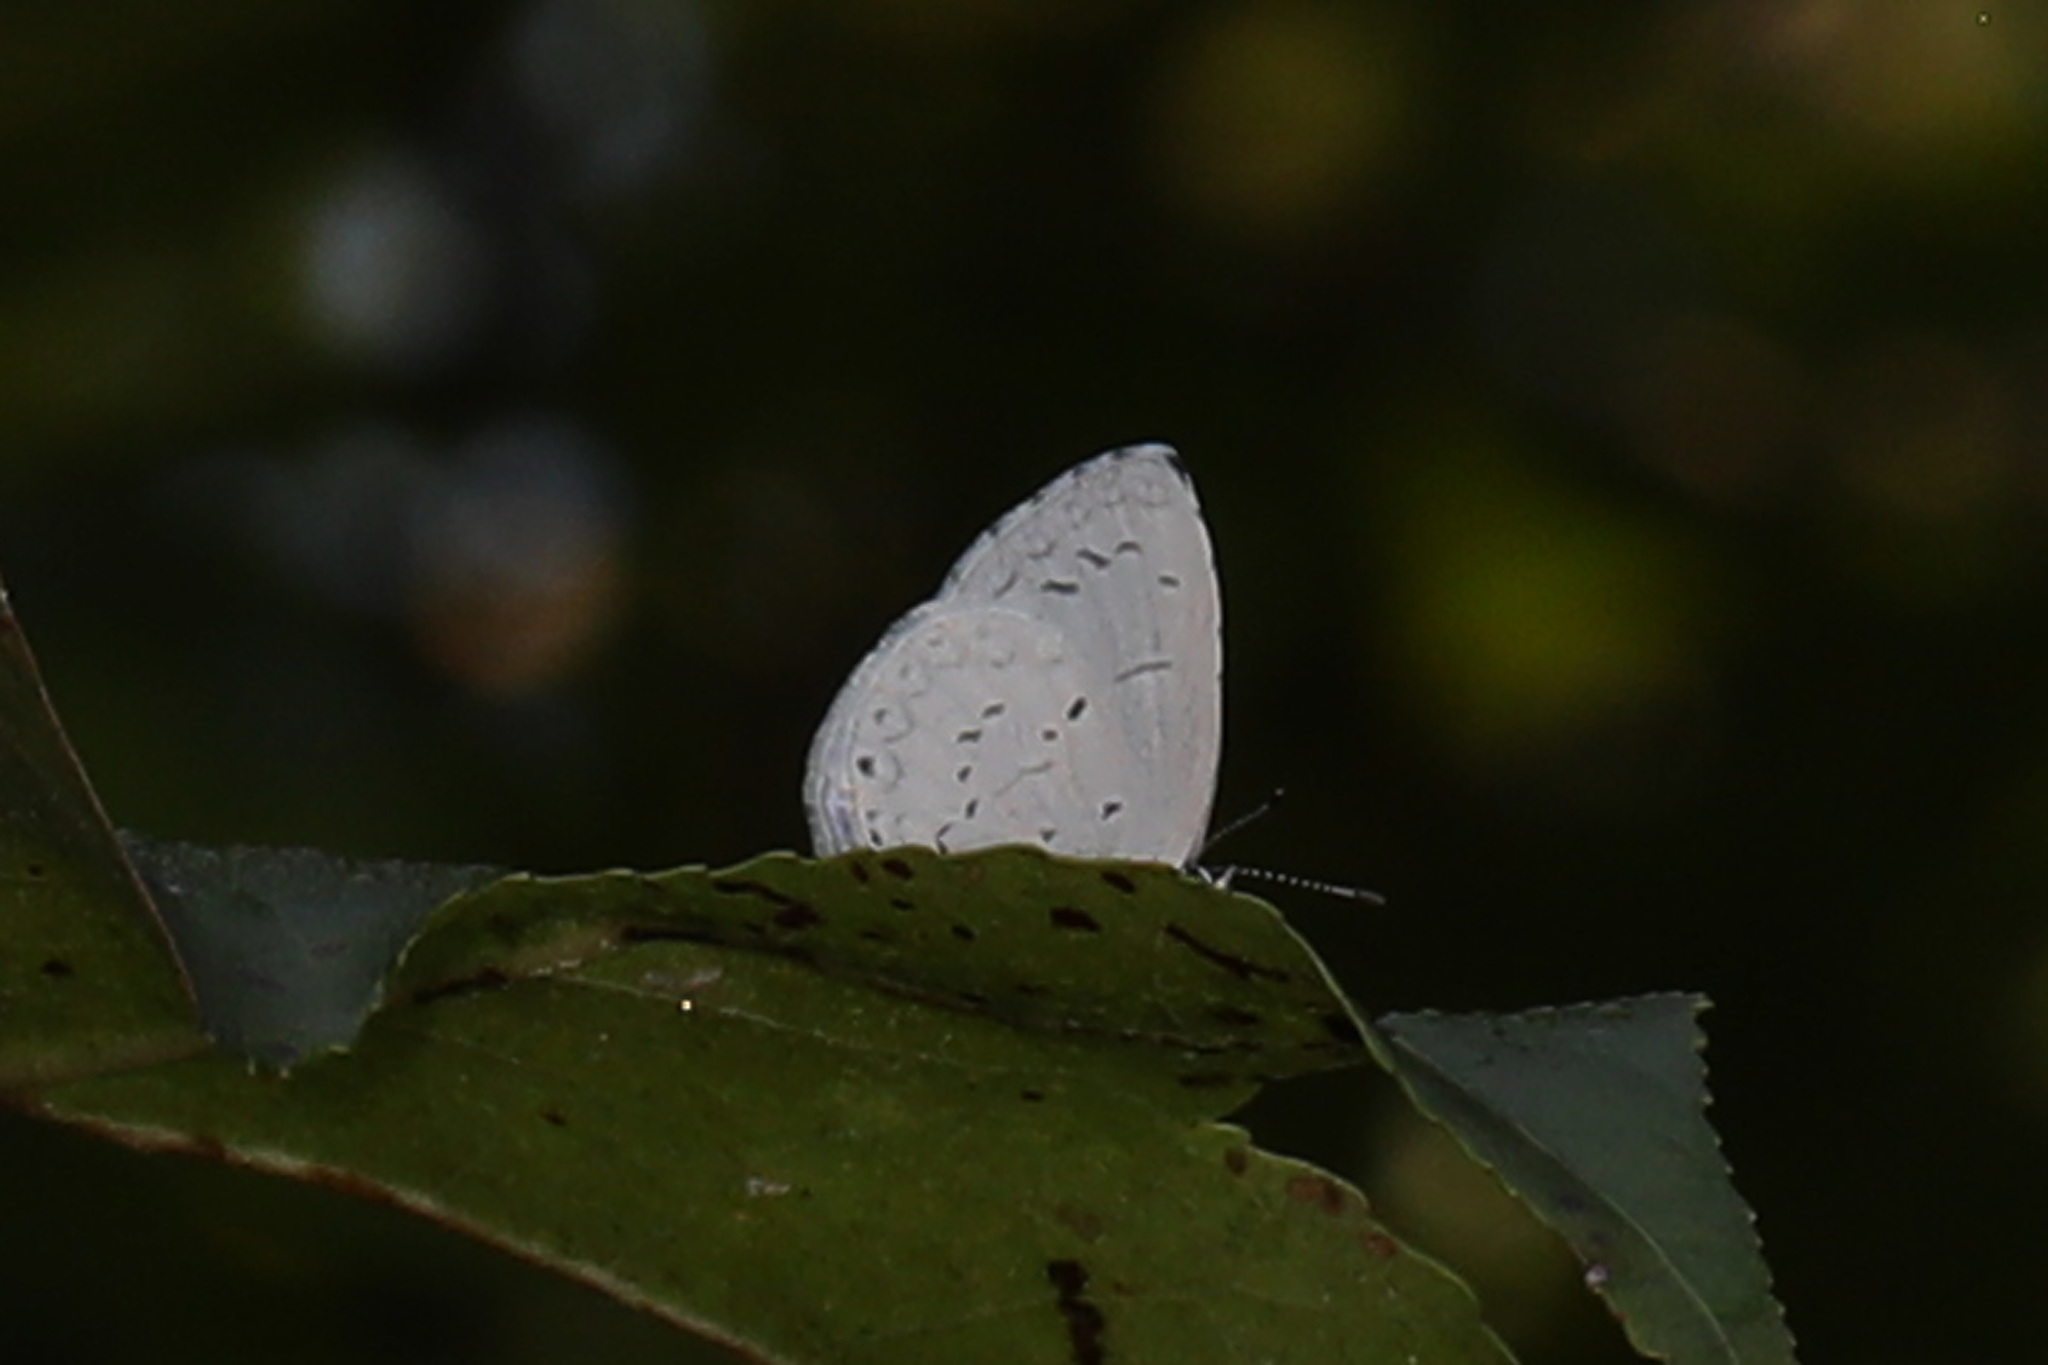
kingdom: Animalia
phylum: Arthropoda
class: Insecta
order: Lepidoptera
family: Lycaenidae
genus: Cyaniris
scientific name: Cyaniris neglecta
